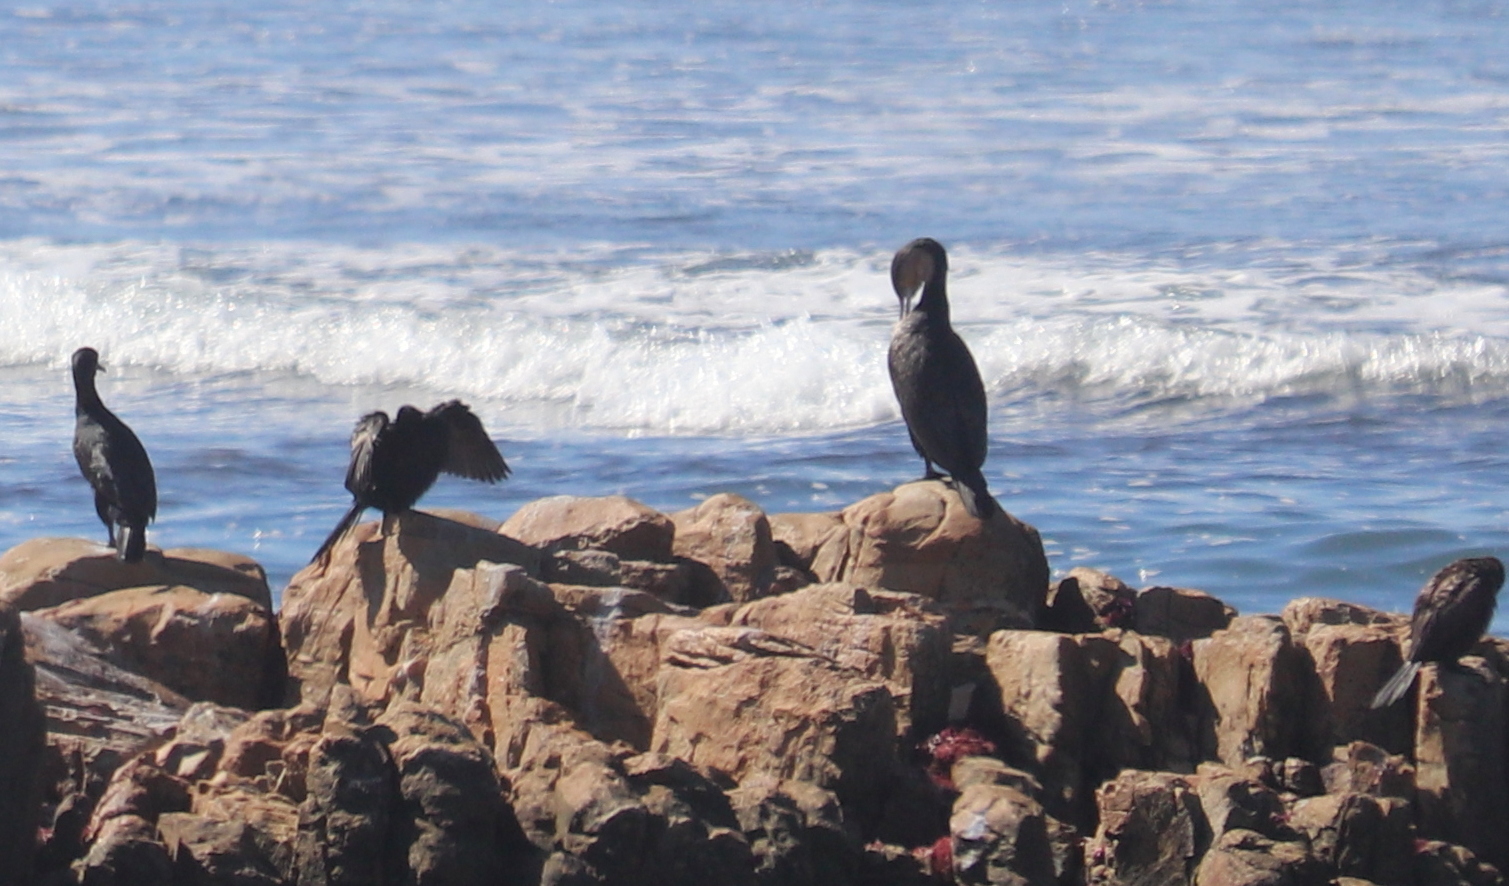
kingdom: Animalia
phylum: Chordata
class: Aves
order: Suliformes
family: Phalacrocoracidae
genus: Phalacrocorax
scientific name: Phalacrocorax capensis
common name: Cape cormorant
